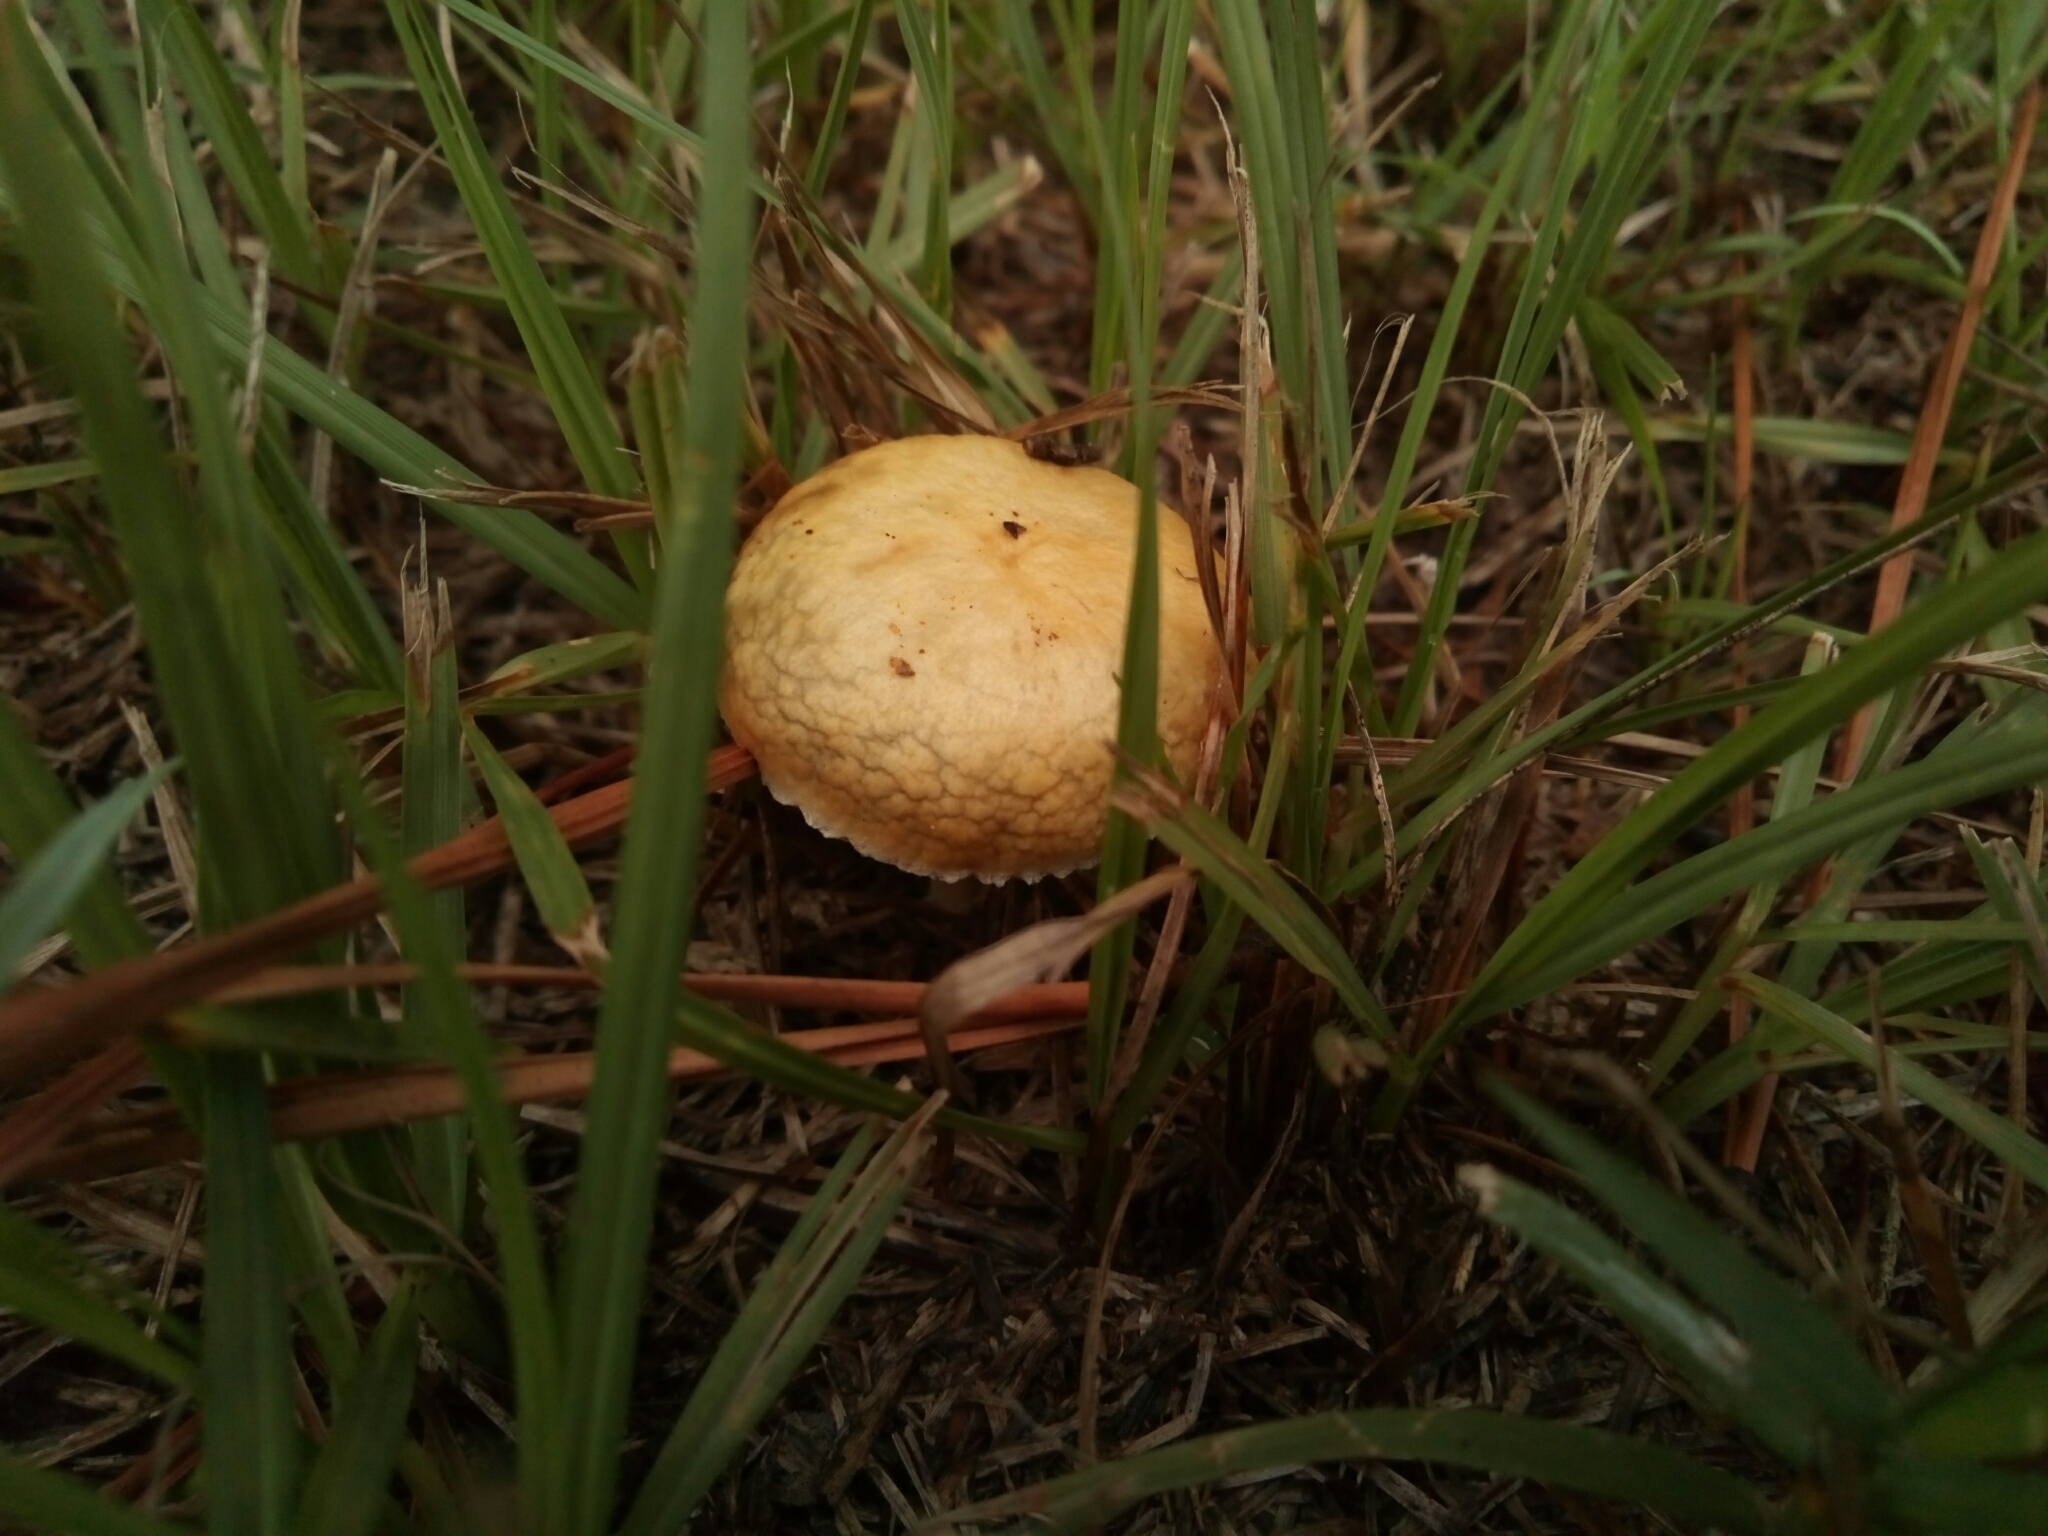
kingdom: Fungi
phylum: Basidiomycota
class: Agaricomycetes
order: Agaricales
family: Hymenogastraceae
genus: Psilocybe
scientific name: Psilocybe coronilla
